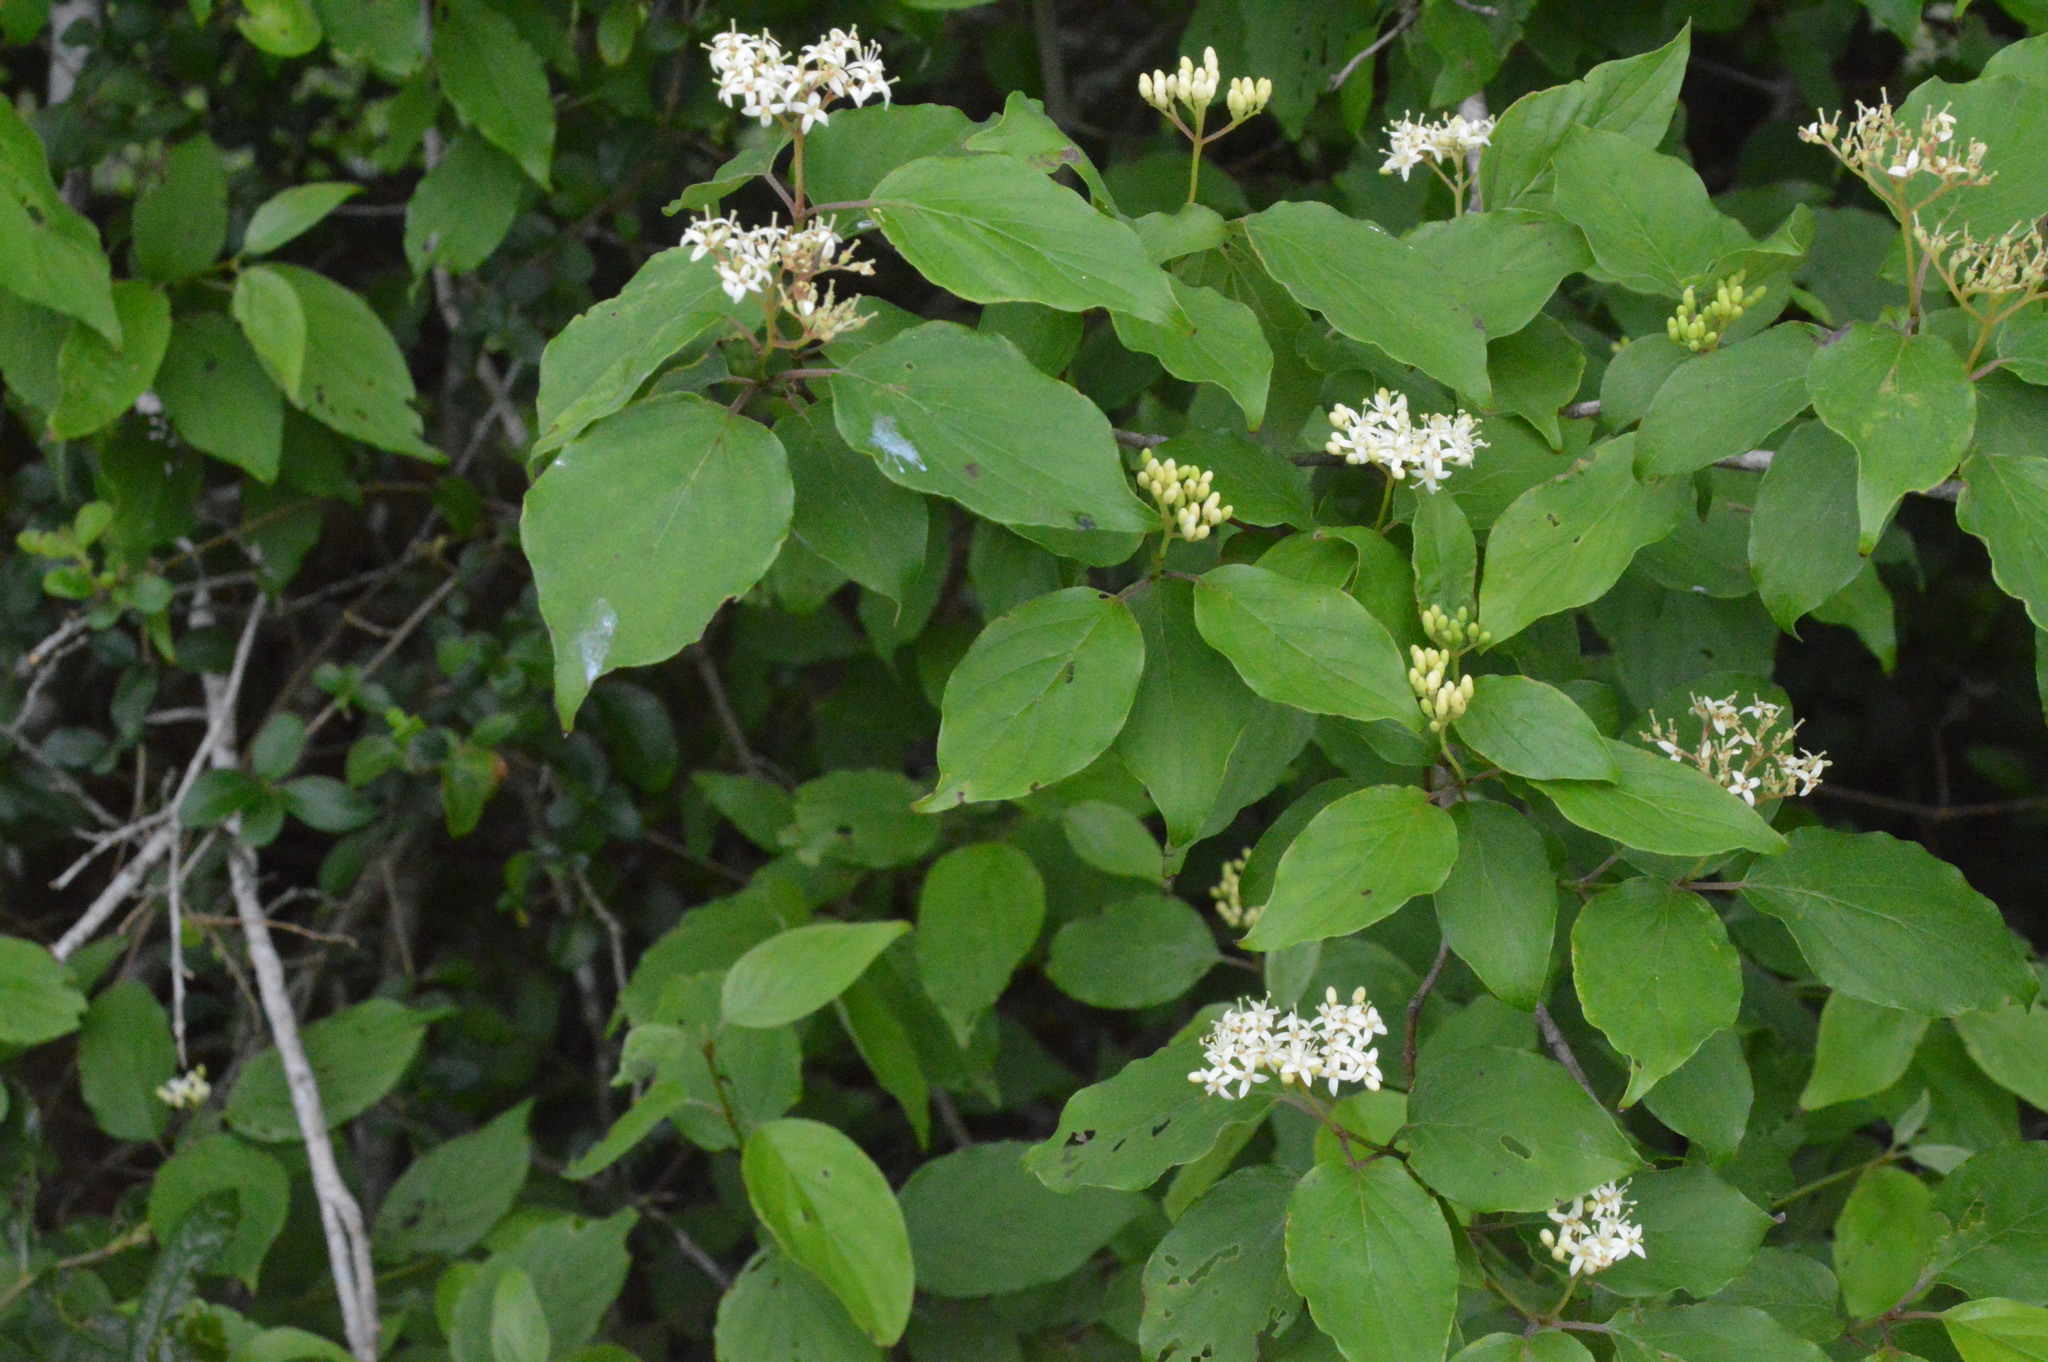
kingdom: Plantae
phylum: Tracheophyta
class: Magnoliopsida
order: Cornales
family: Cornaceae
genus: Cornus
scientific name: Cornus drummondii
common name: Rough-leaf dogwood
